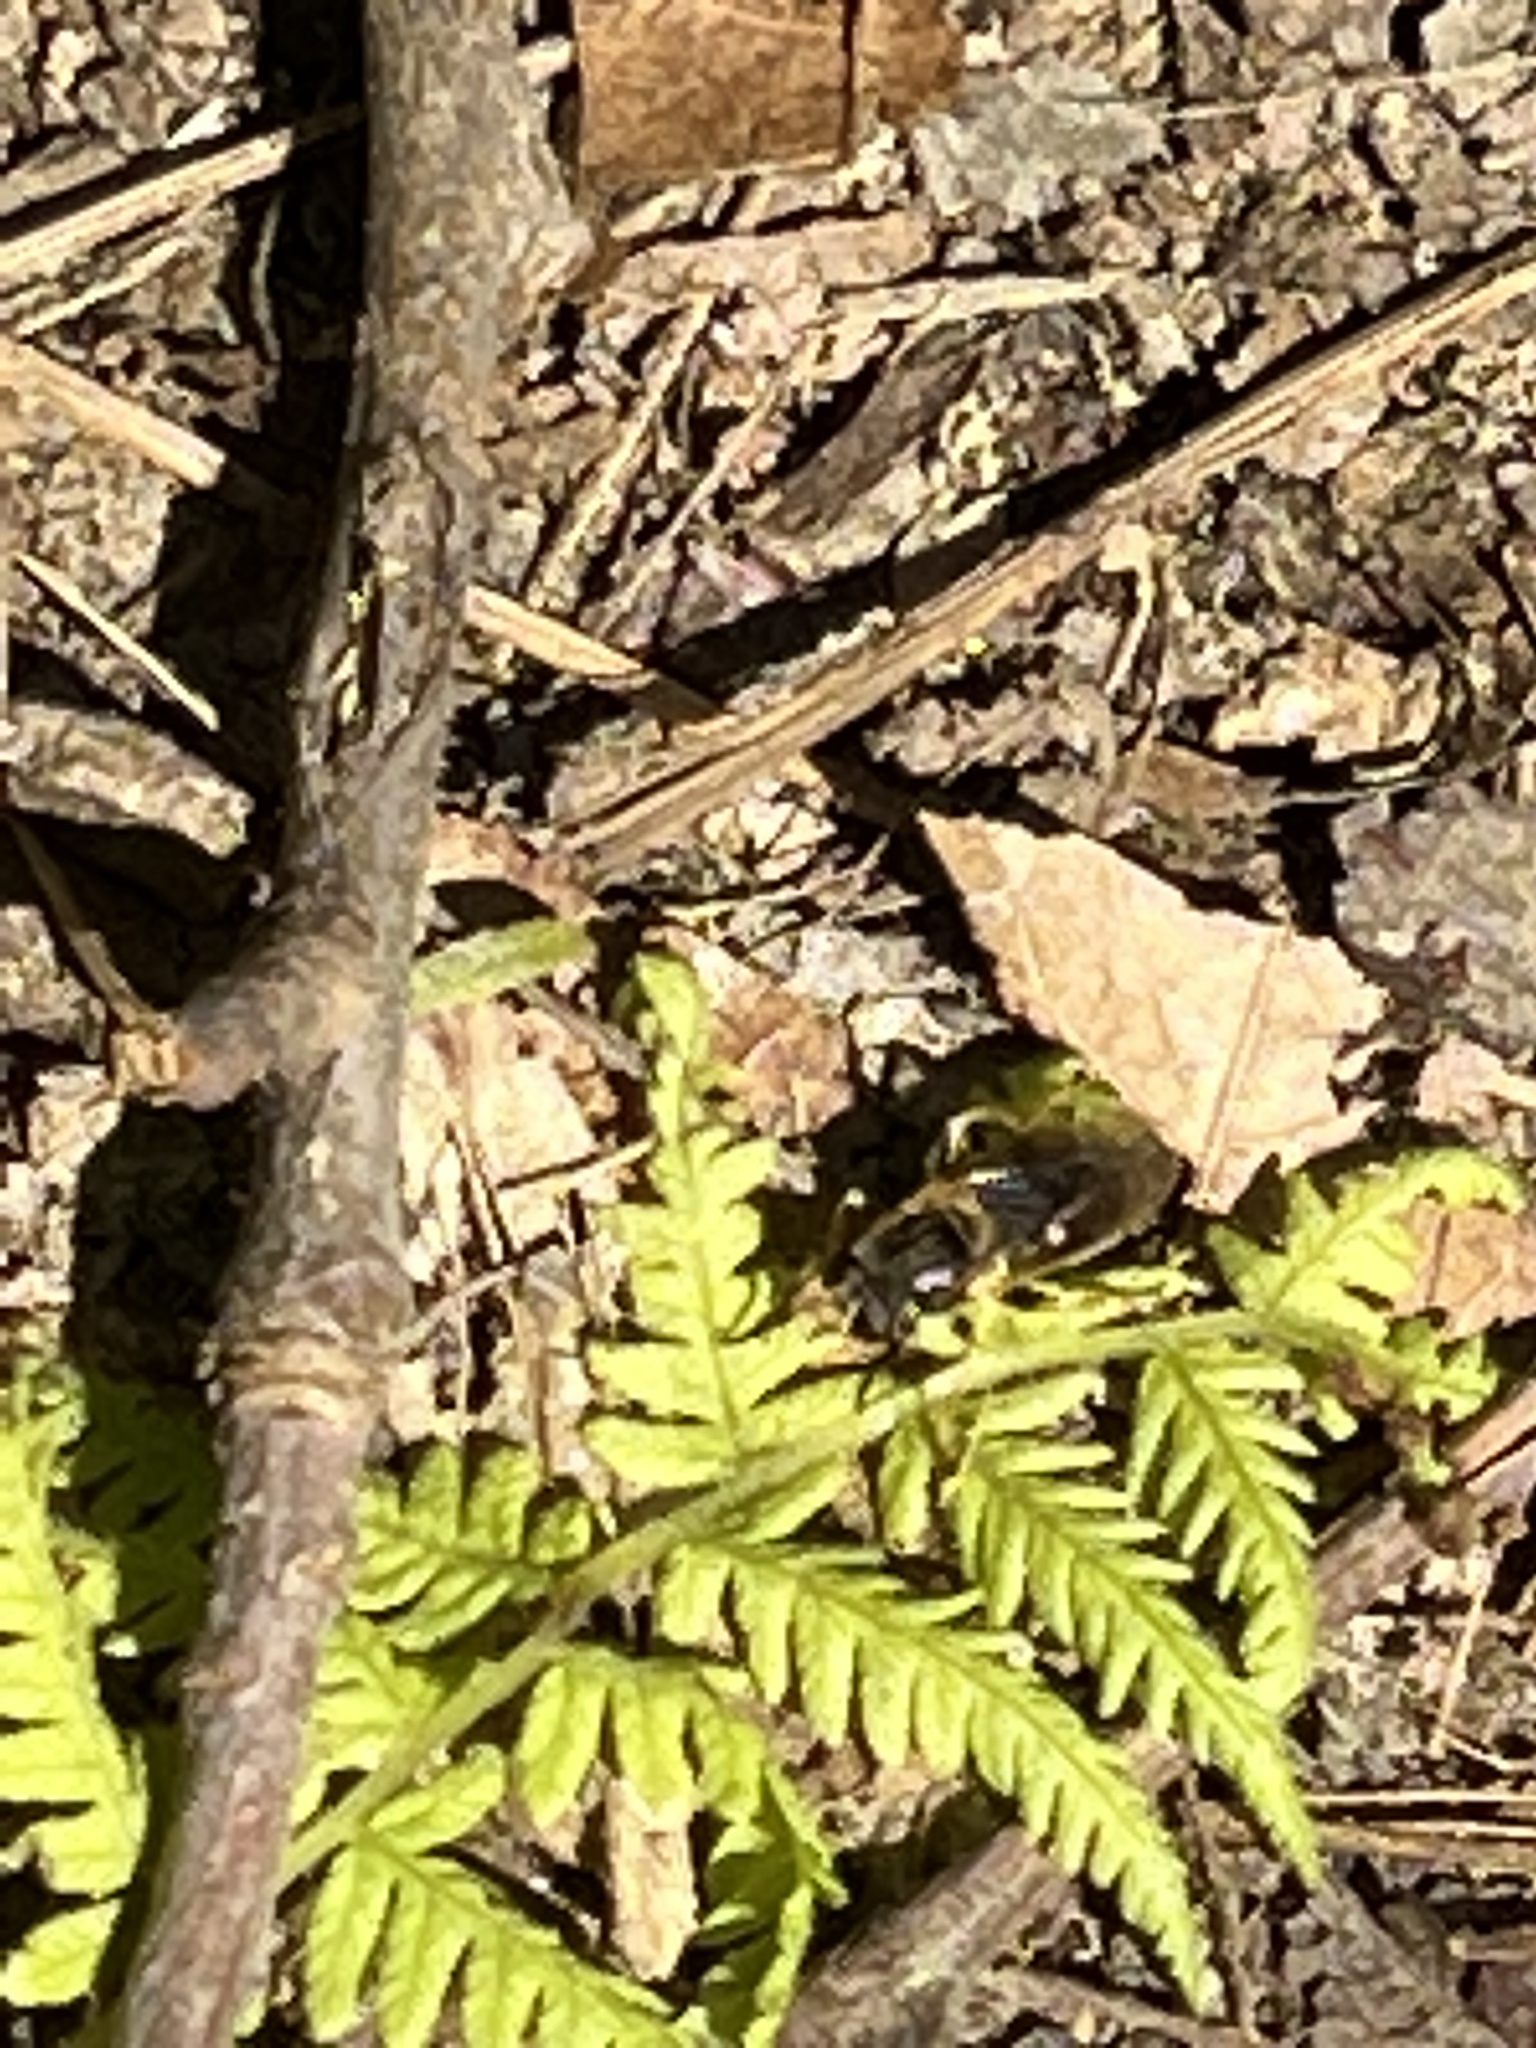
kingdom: Animalia
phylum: Arthropoda
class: Insecta
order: Diptera
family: Syrphidae
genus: Teuchocnemis
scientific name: Teuchocnemis lituratus
